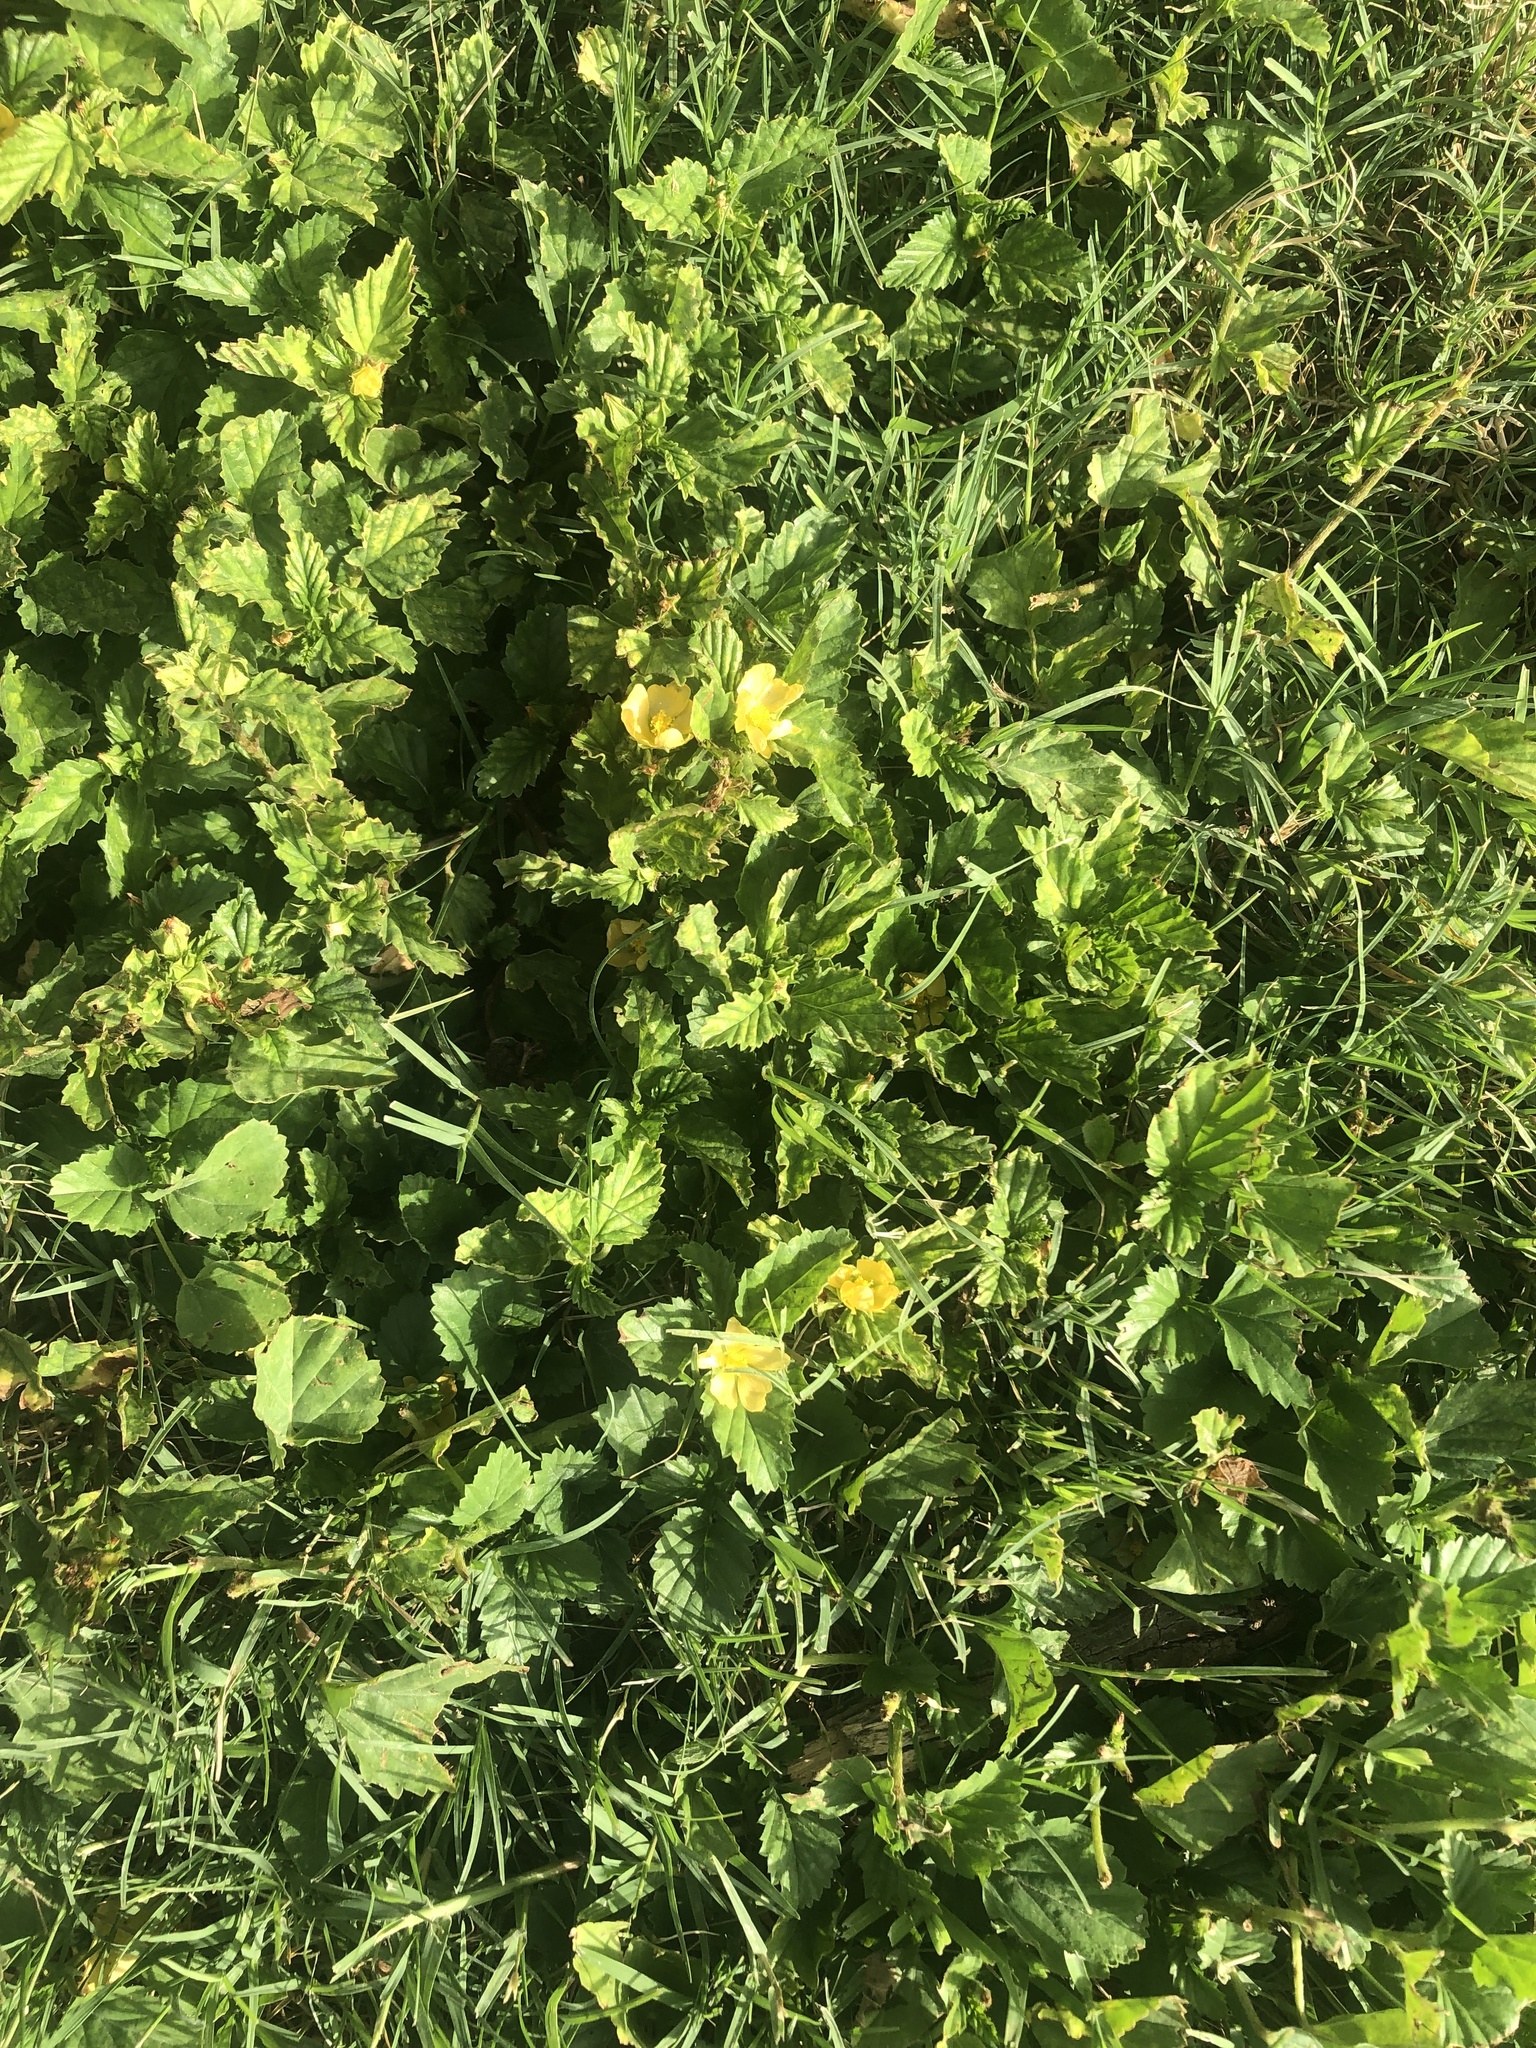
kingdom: Plantae
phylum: Tracheophyta
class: Magnoliopsida
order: Malvales
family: Malvaceae
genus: Malvastrum
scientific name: Malvastrum coromandelianum
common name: Threelobe false mallow
